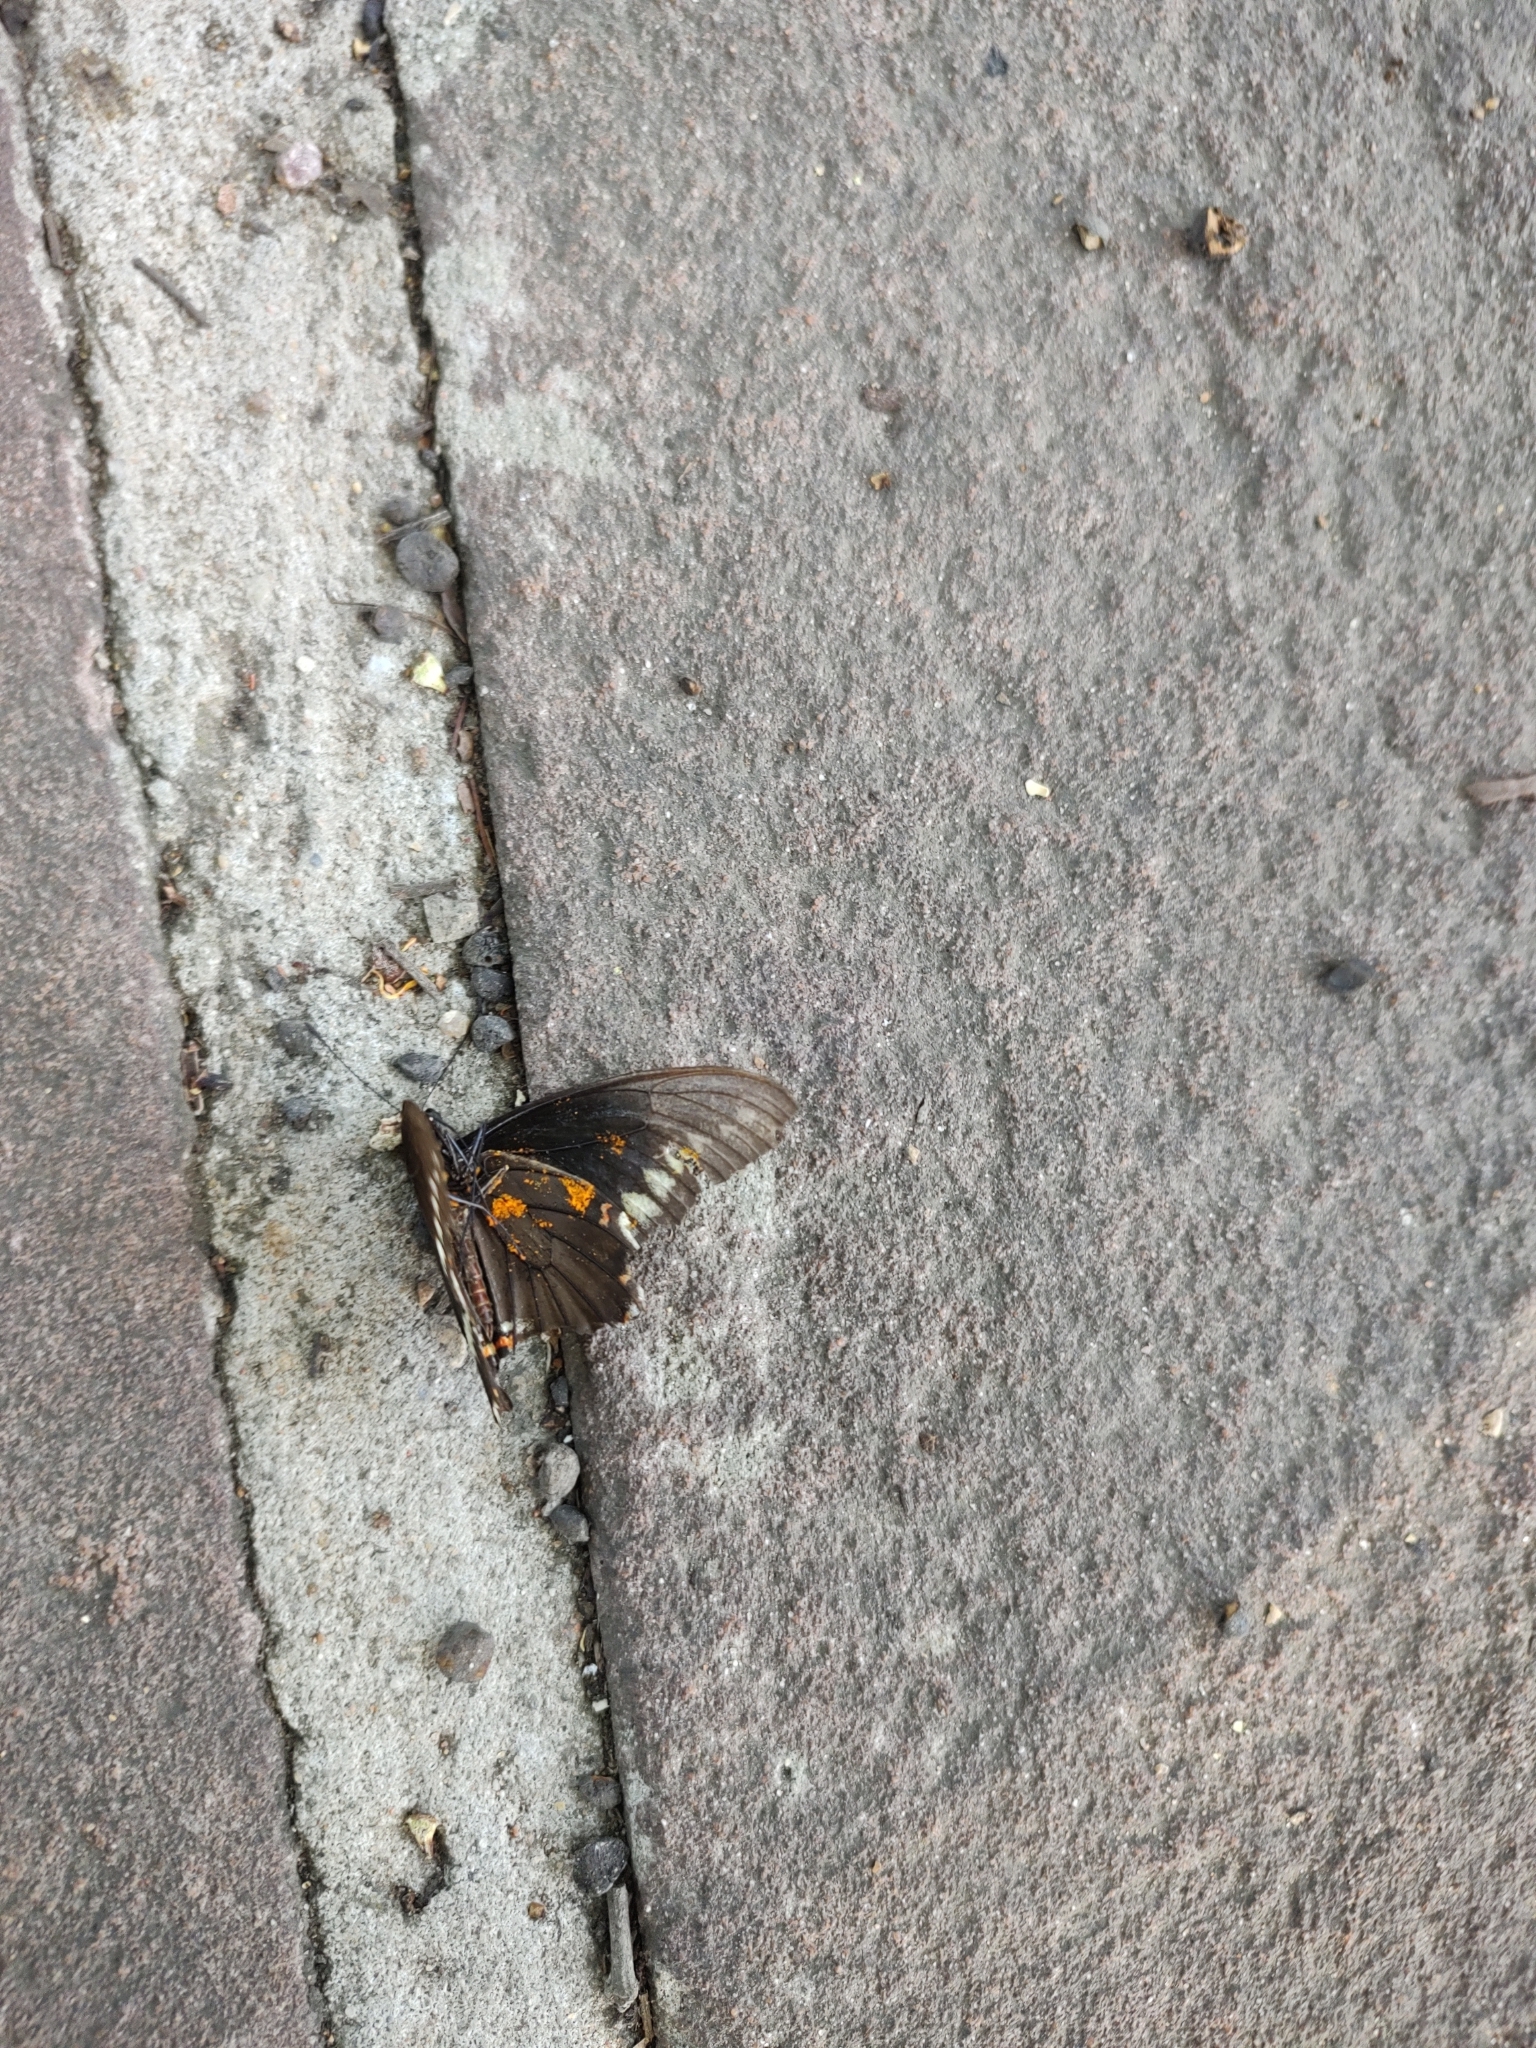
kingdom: Animalia
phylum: Arthropoda
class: Insecta
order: Lepidoptera
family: Papilionidae
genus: Battus
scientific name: Battus polydamas
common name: Polydamas swallowtail
